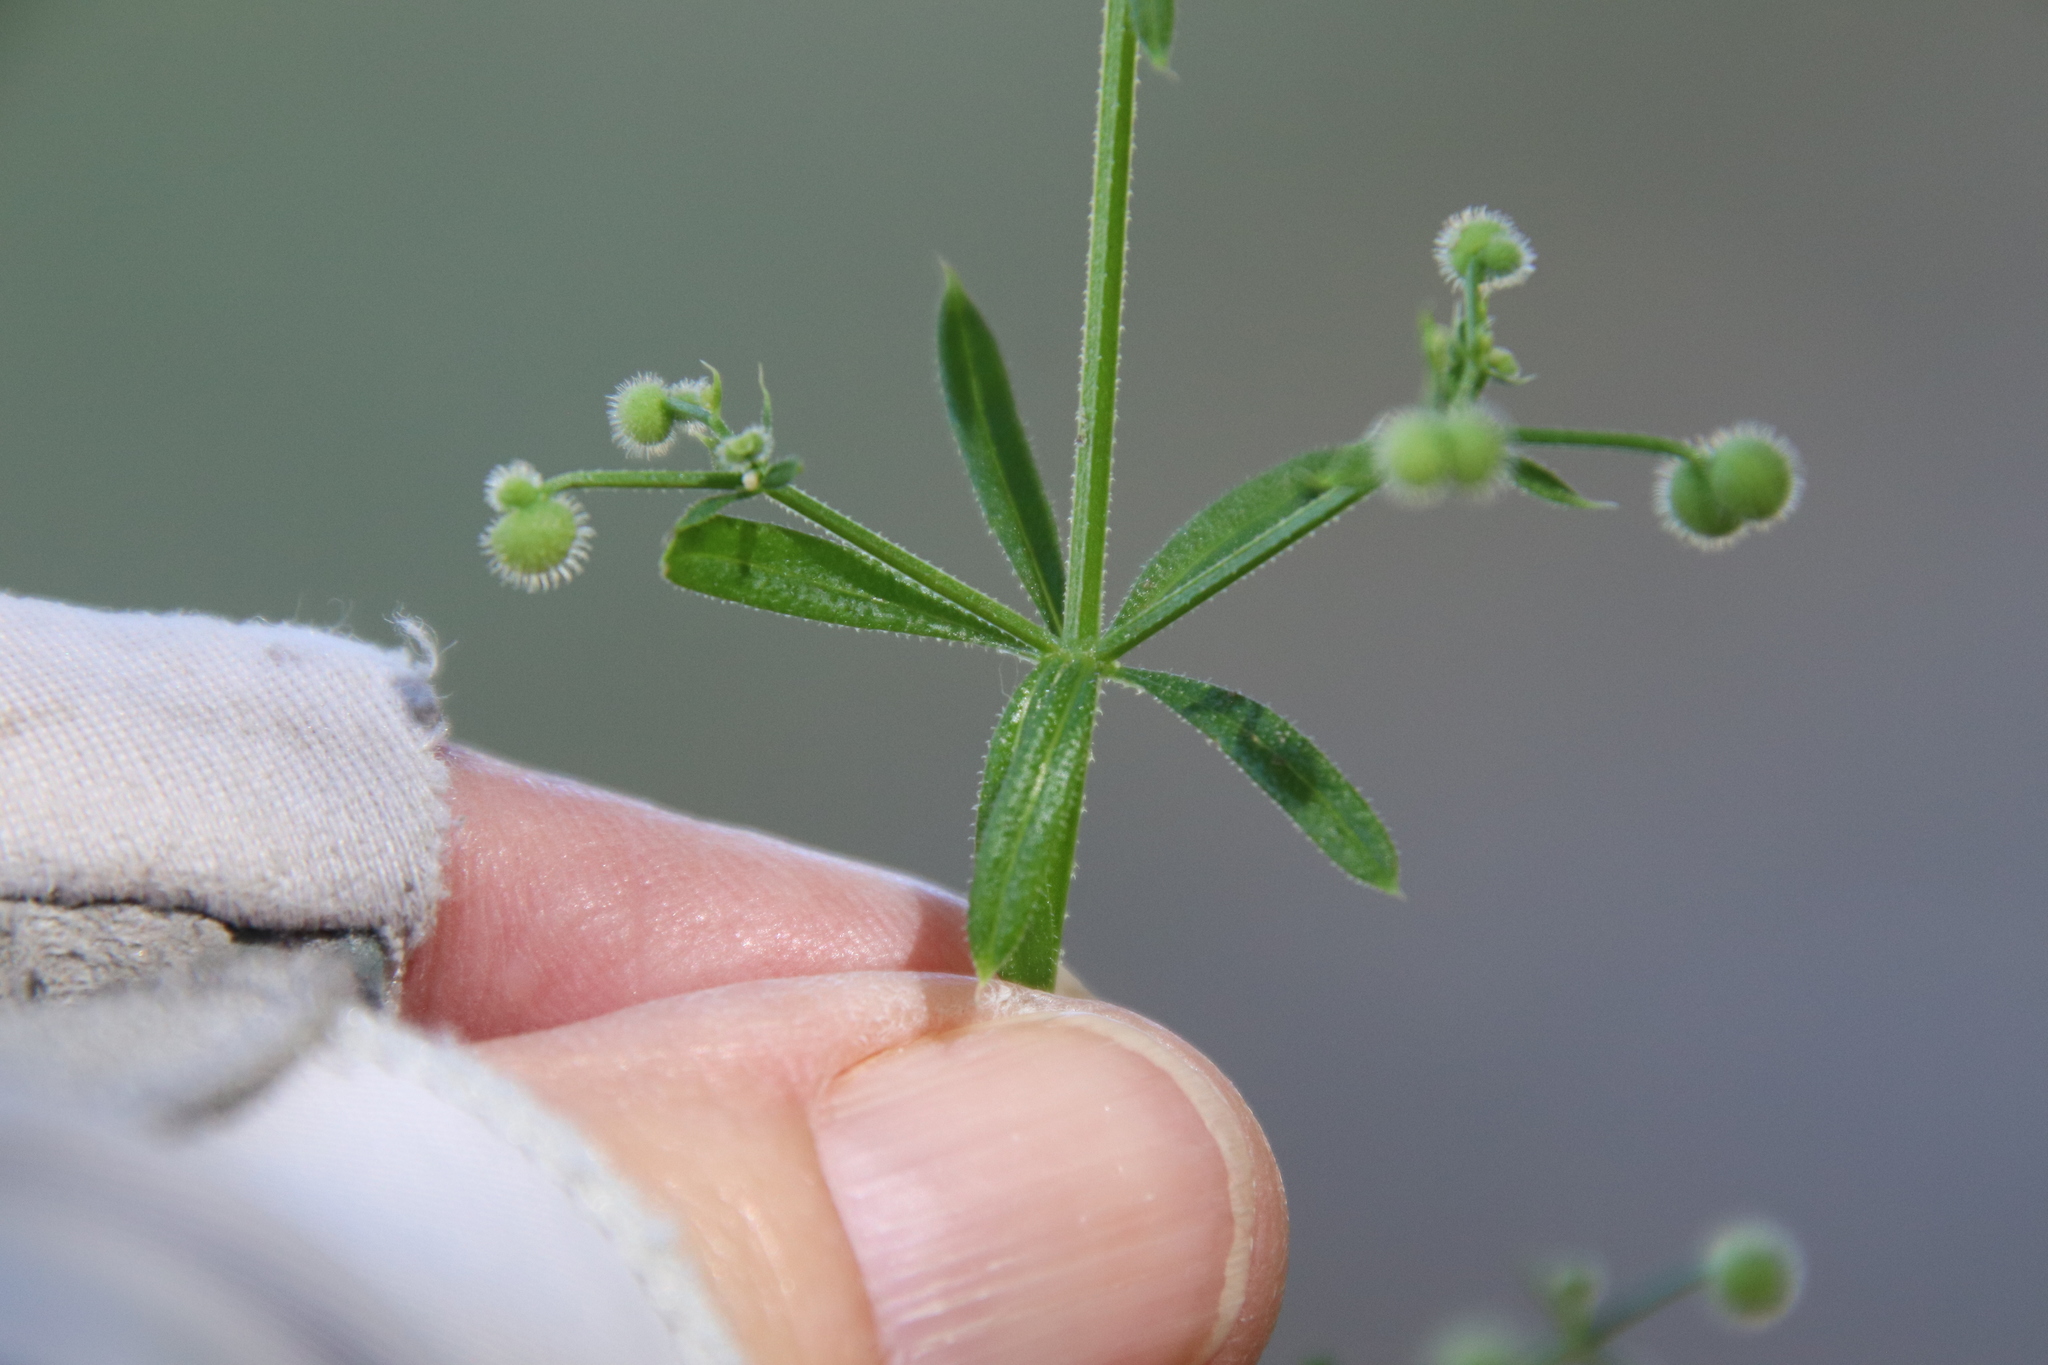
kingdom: Plantae
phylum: Tracheophyta
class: Magnoliopsida
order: Gentianales
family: Rubiaceae
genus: Galium
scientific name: Galium aparine
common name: Cleavers
